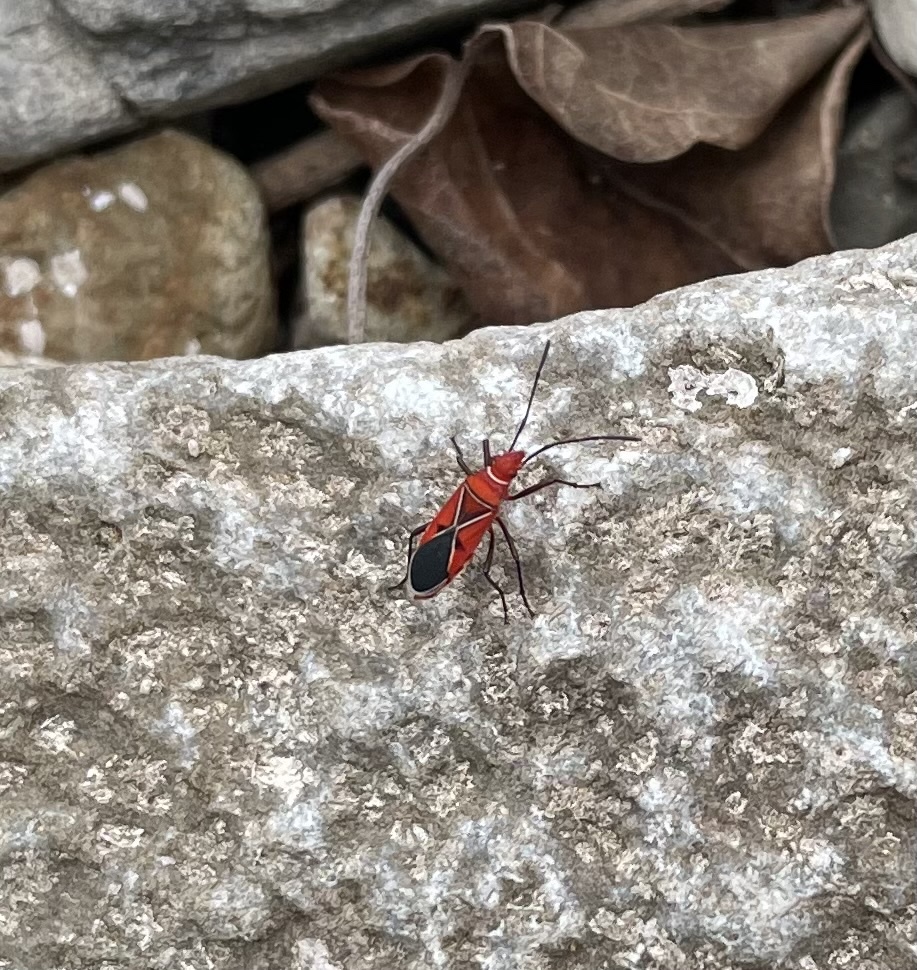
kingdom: Animalia
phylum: Arthropoda
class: Insecta
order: Hemiptera
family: Pyrrhocoridae
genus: Dysdercus
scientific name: Dysdercus andreae
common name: St. andrew's cotton stainer
